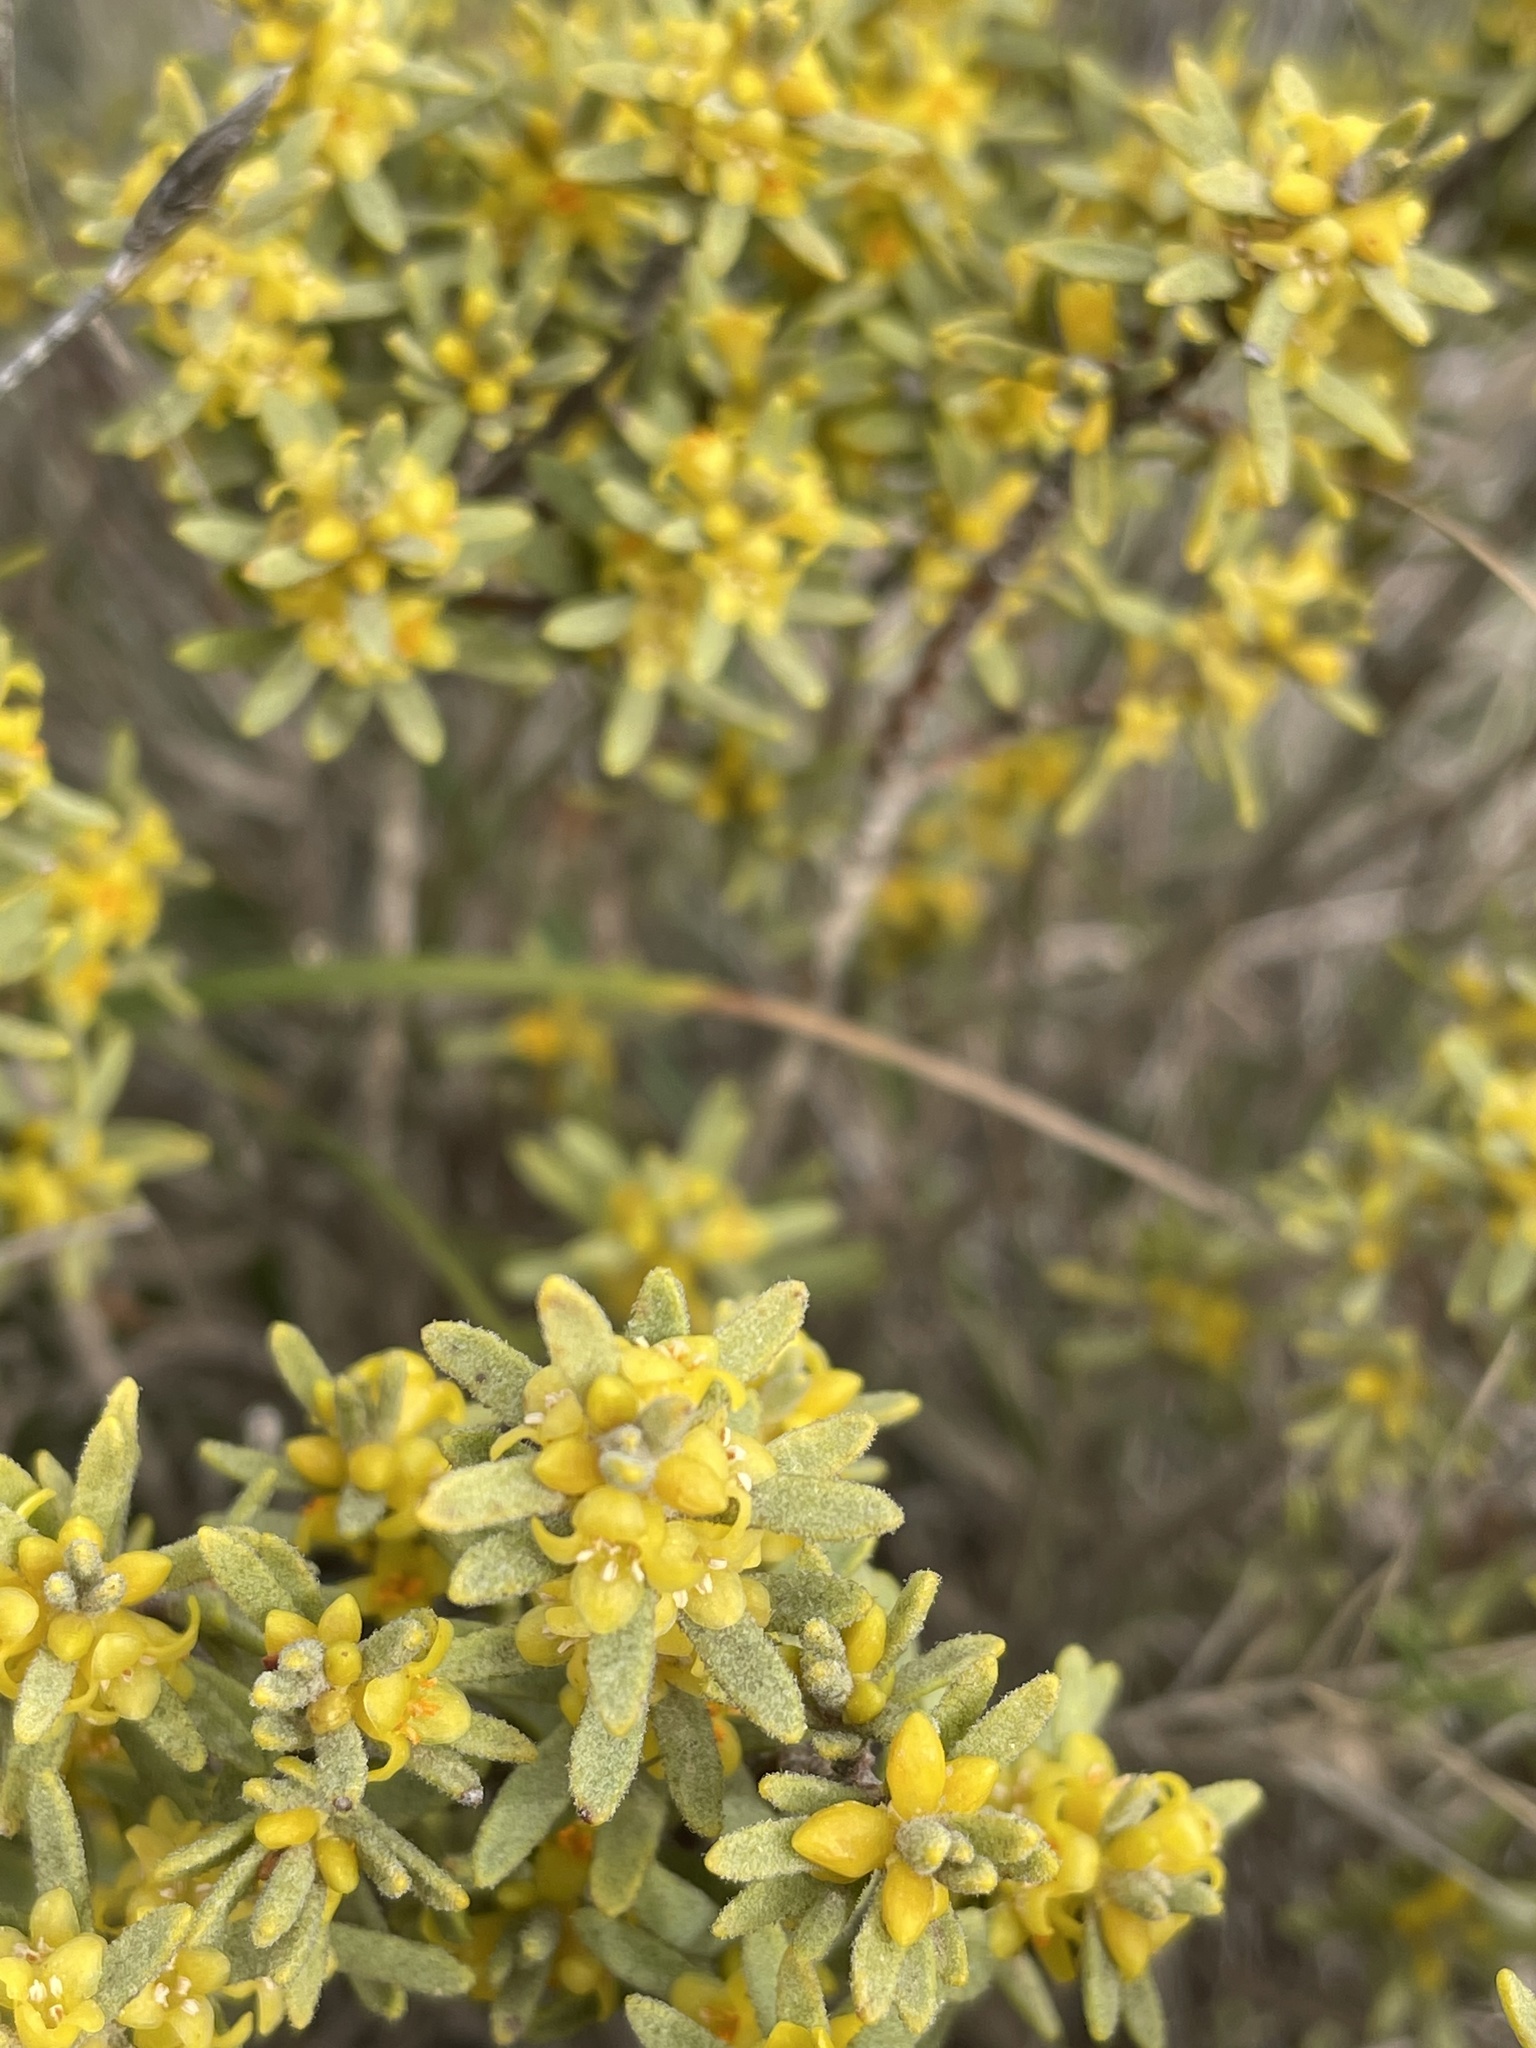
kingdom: Plantae
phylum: Tracheophyta
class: Magnoliopsida
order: Malvales
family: Thymelaeaceae
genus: Thymelaea
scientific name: Thymelaea tinctoria
